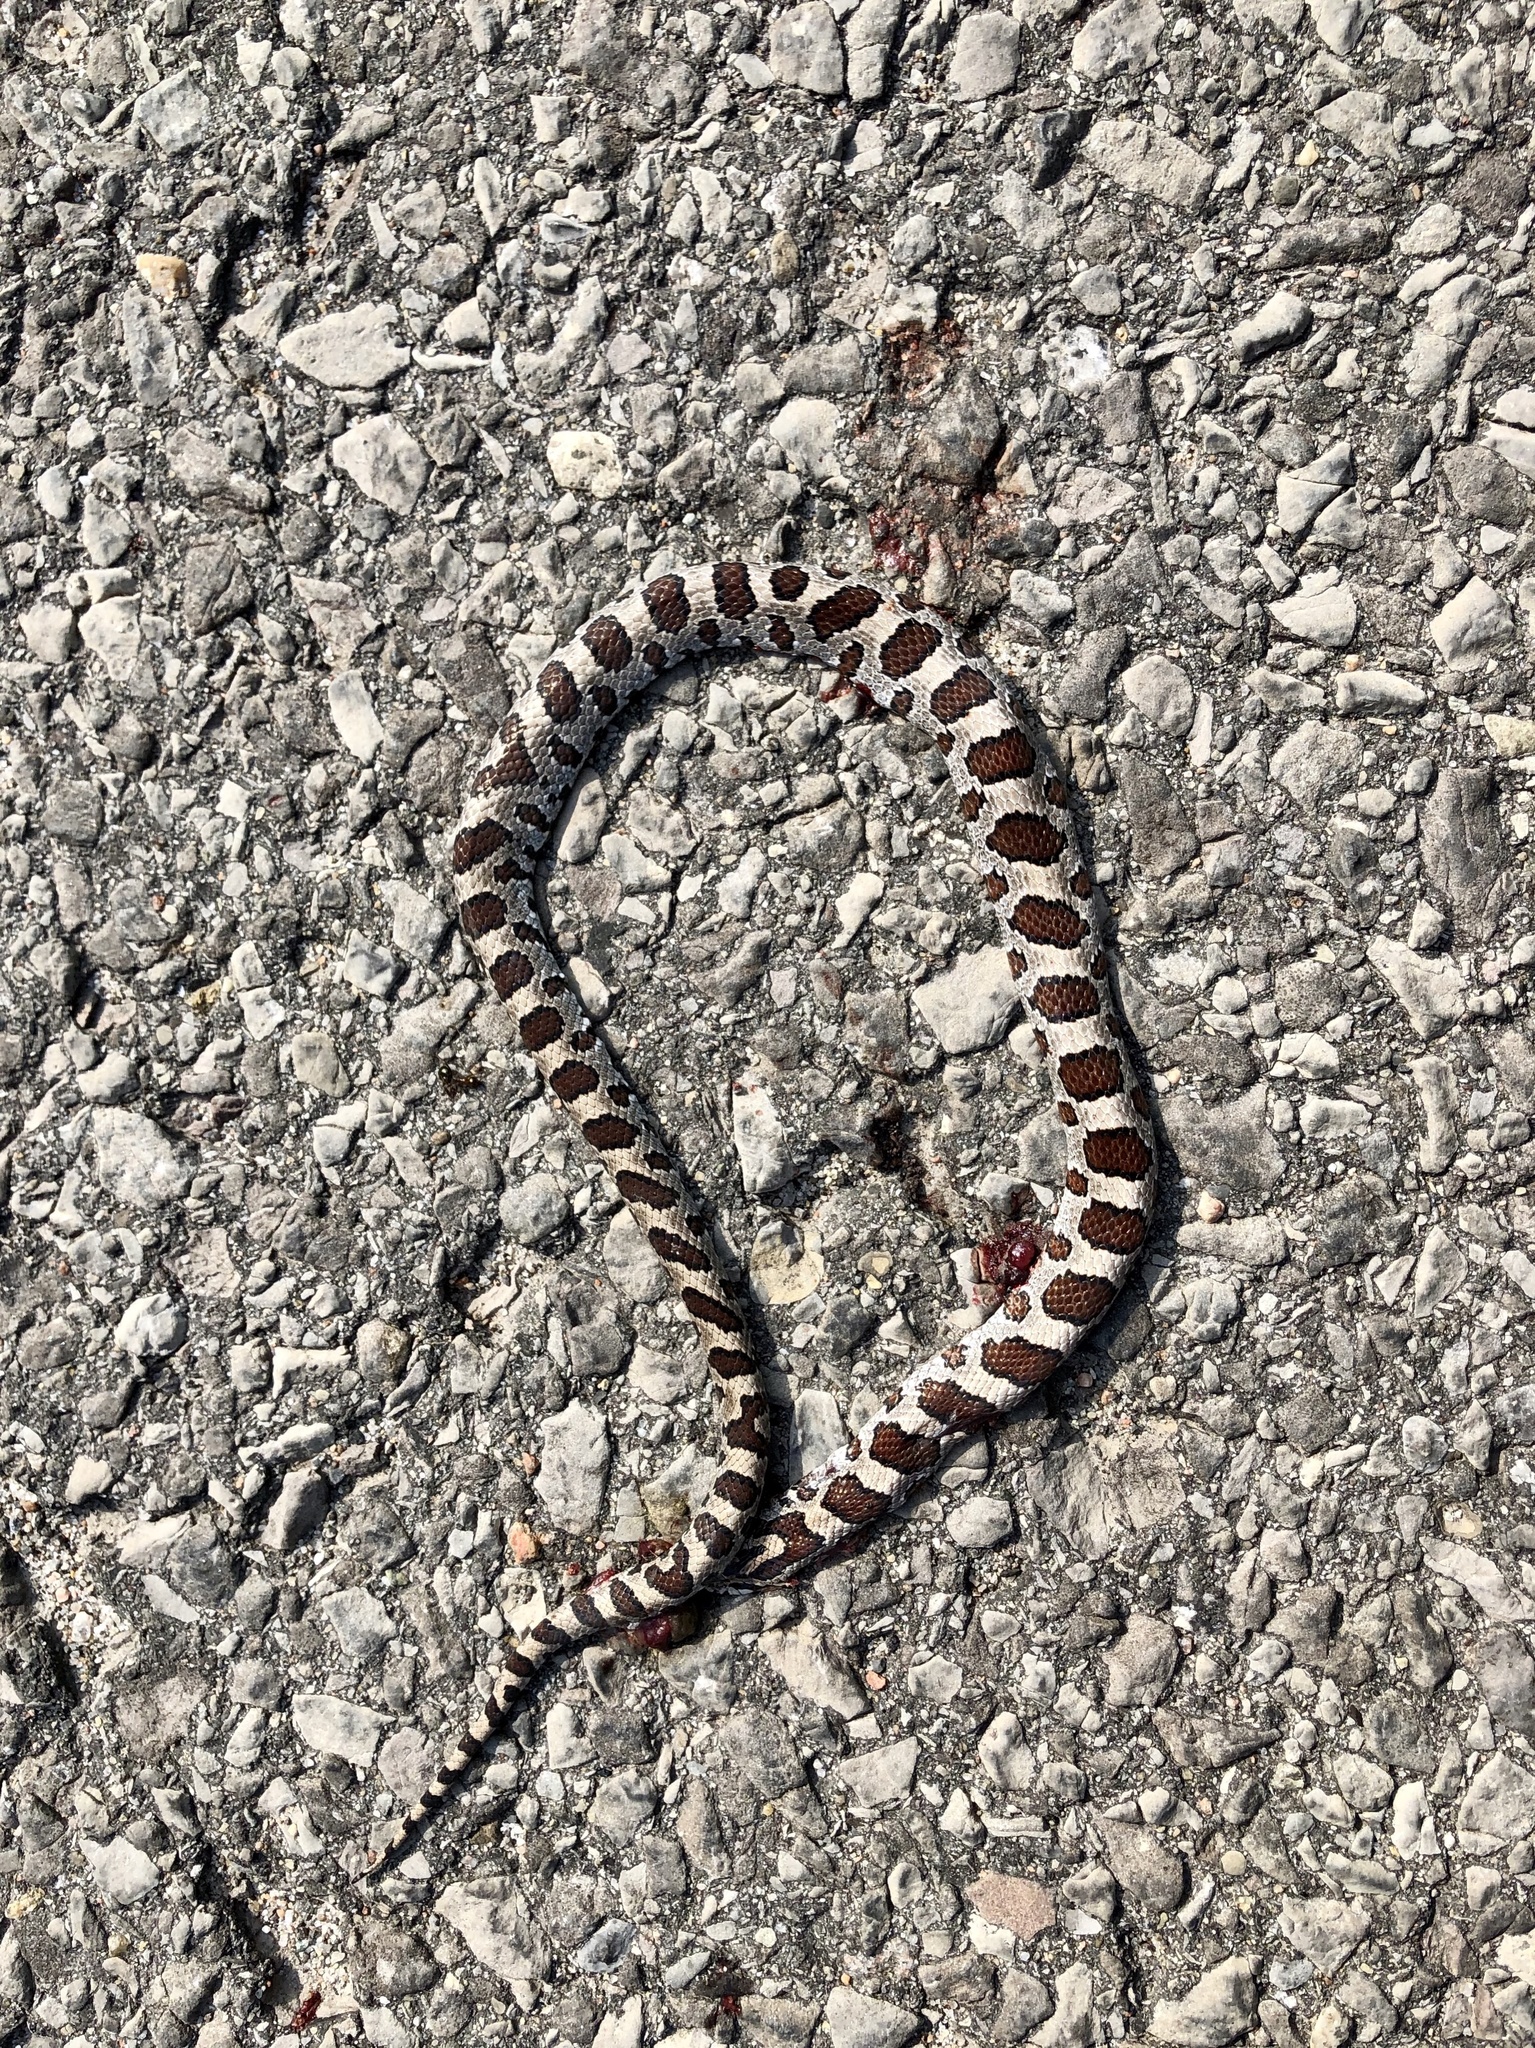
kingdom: Animalia
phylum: Chordata
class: Squamata
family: Colubridae
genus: Lampropeltis
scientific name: Lampropeltis triangulum
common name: Eastern milksnake
